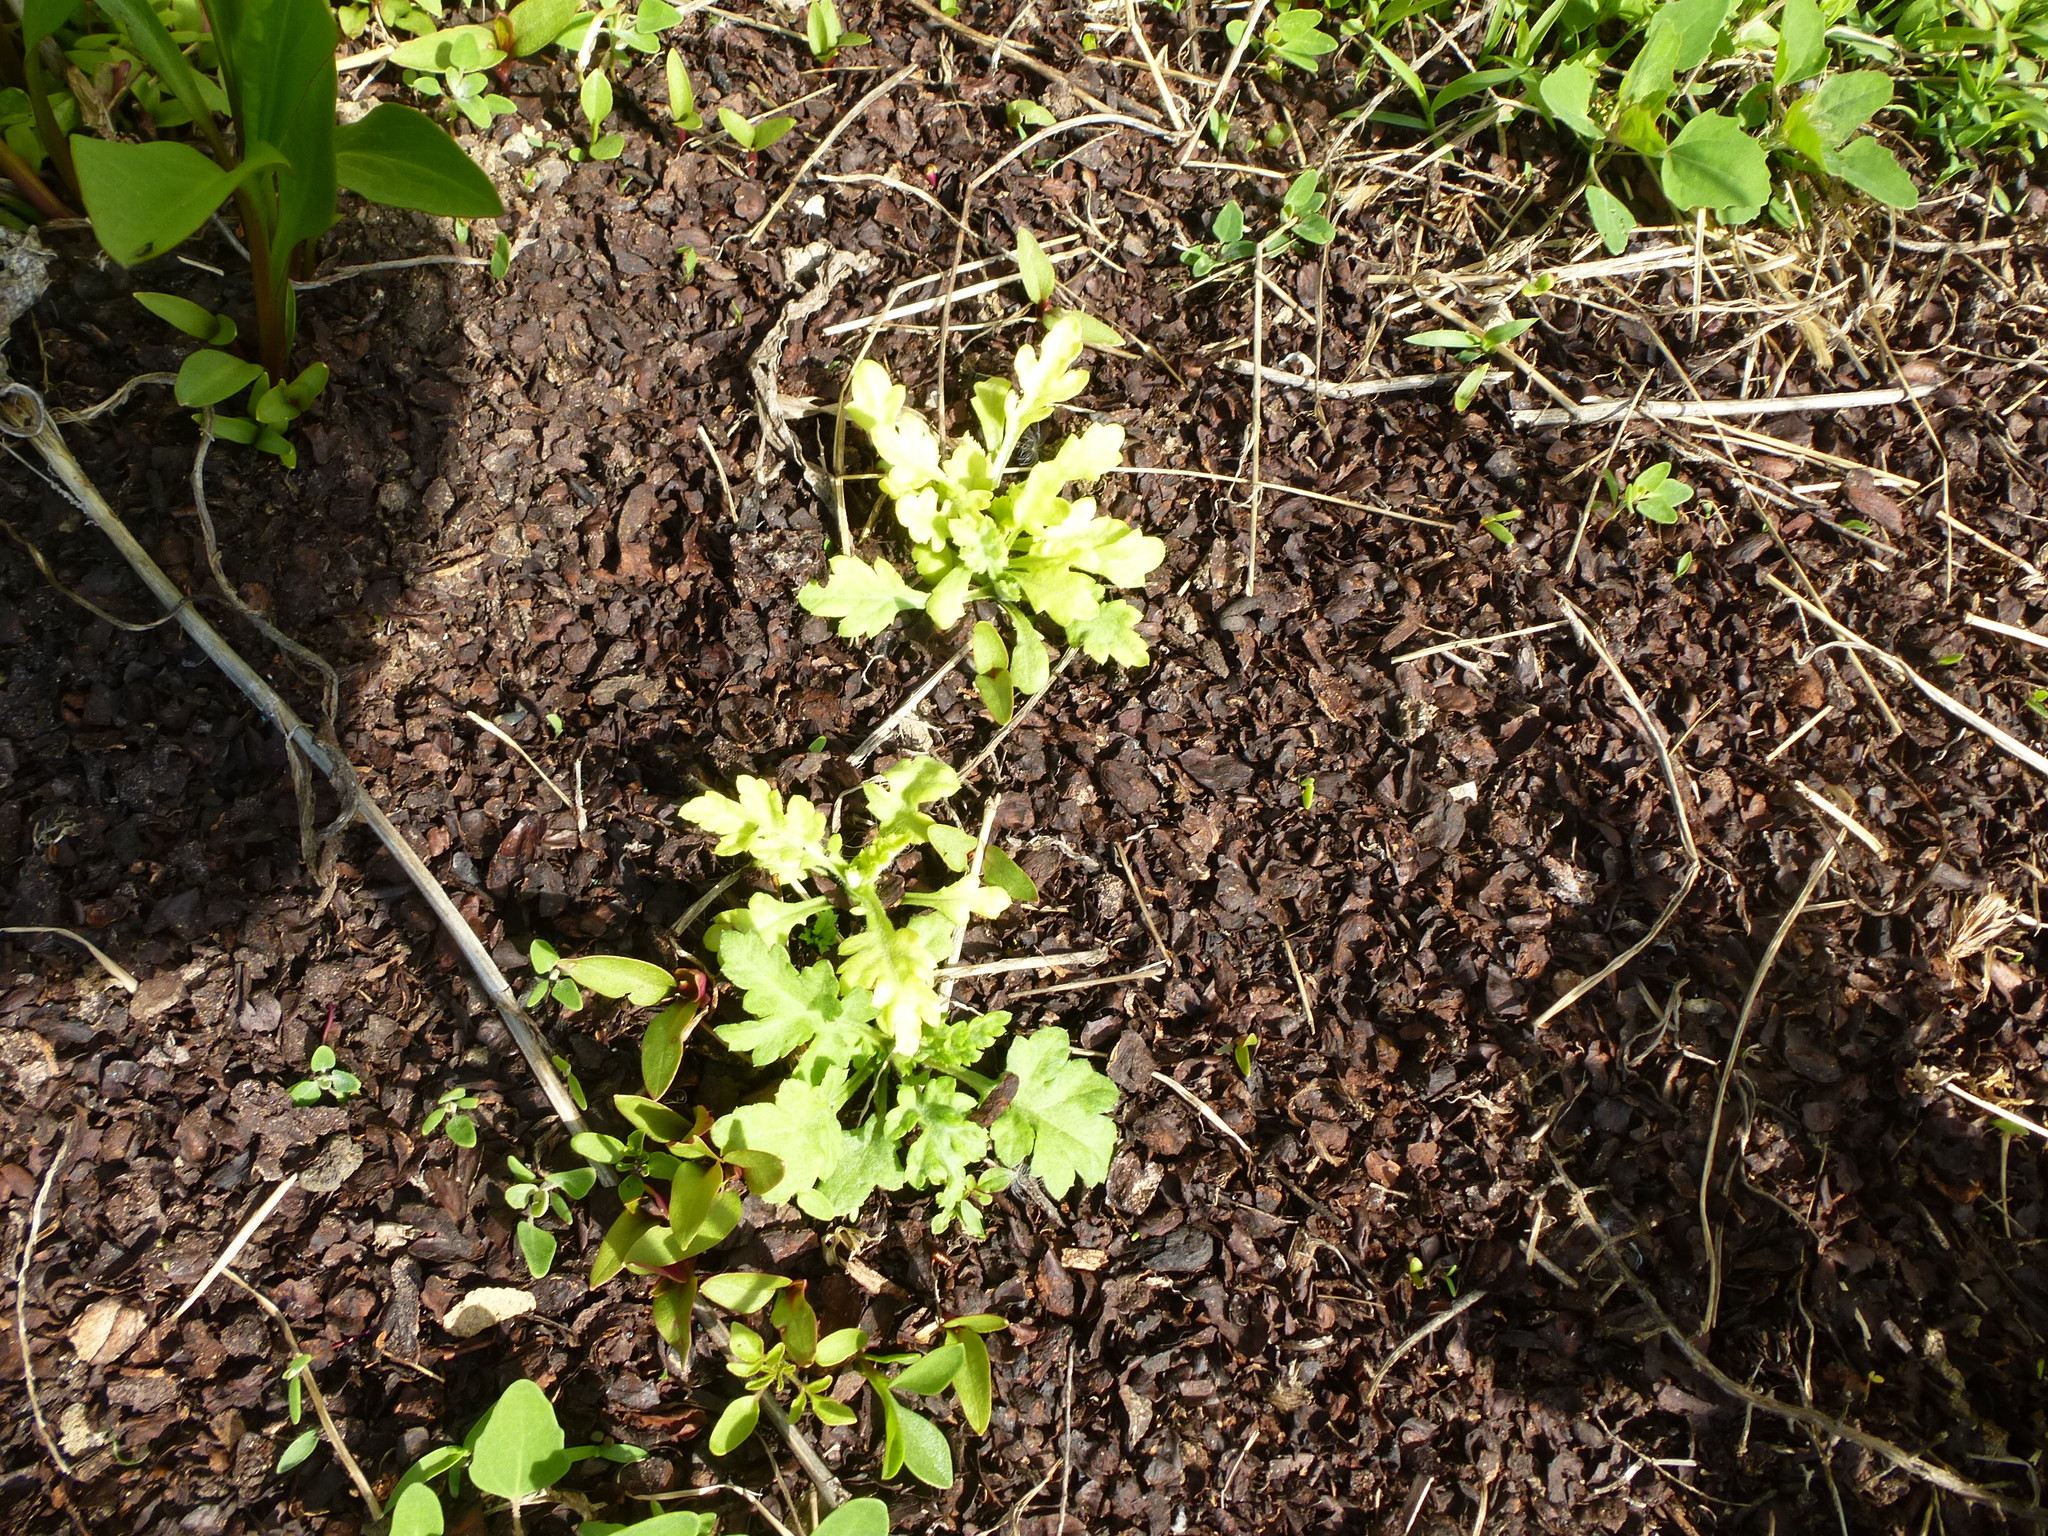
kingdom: Plantae
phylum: Tracheophyta
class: Magnoliopsida
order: Asterales
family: Asteraceae
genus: Artemisia
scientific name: Artemisia vulgaris
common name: Mugwort
